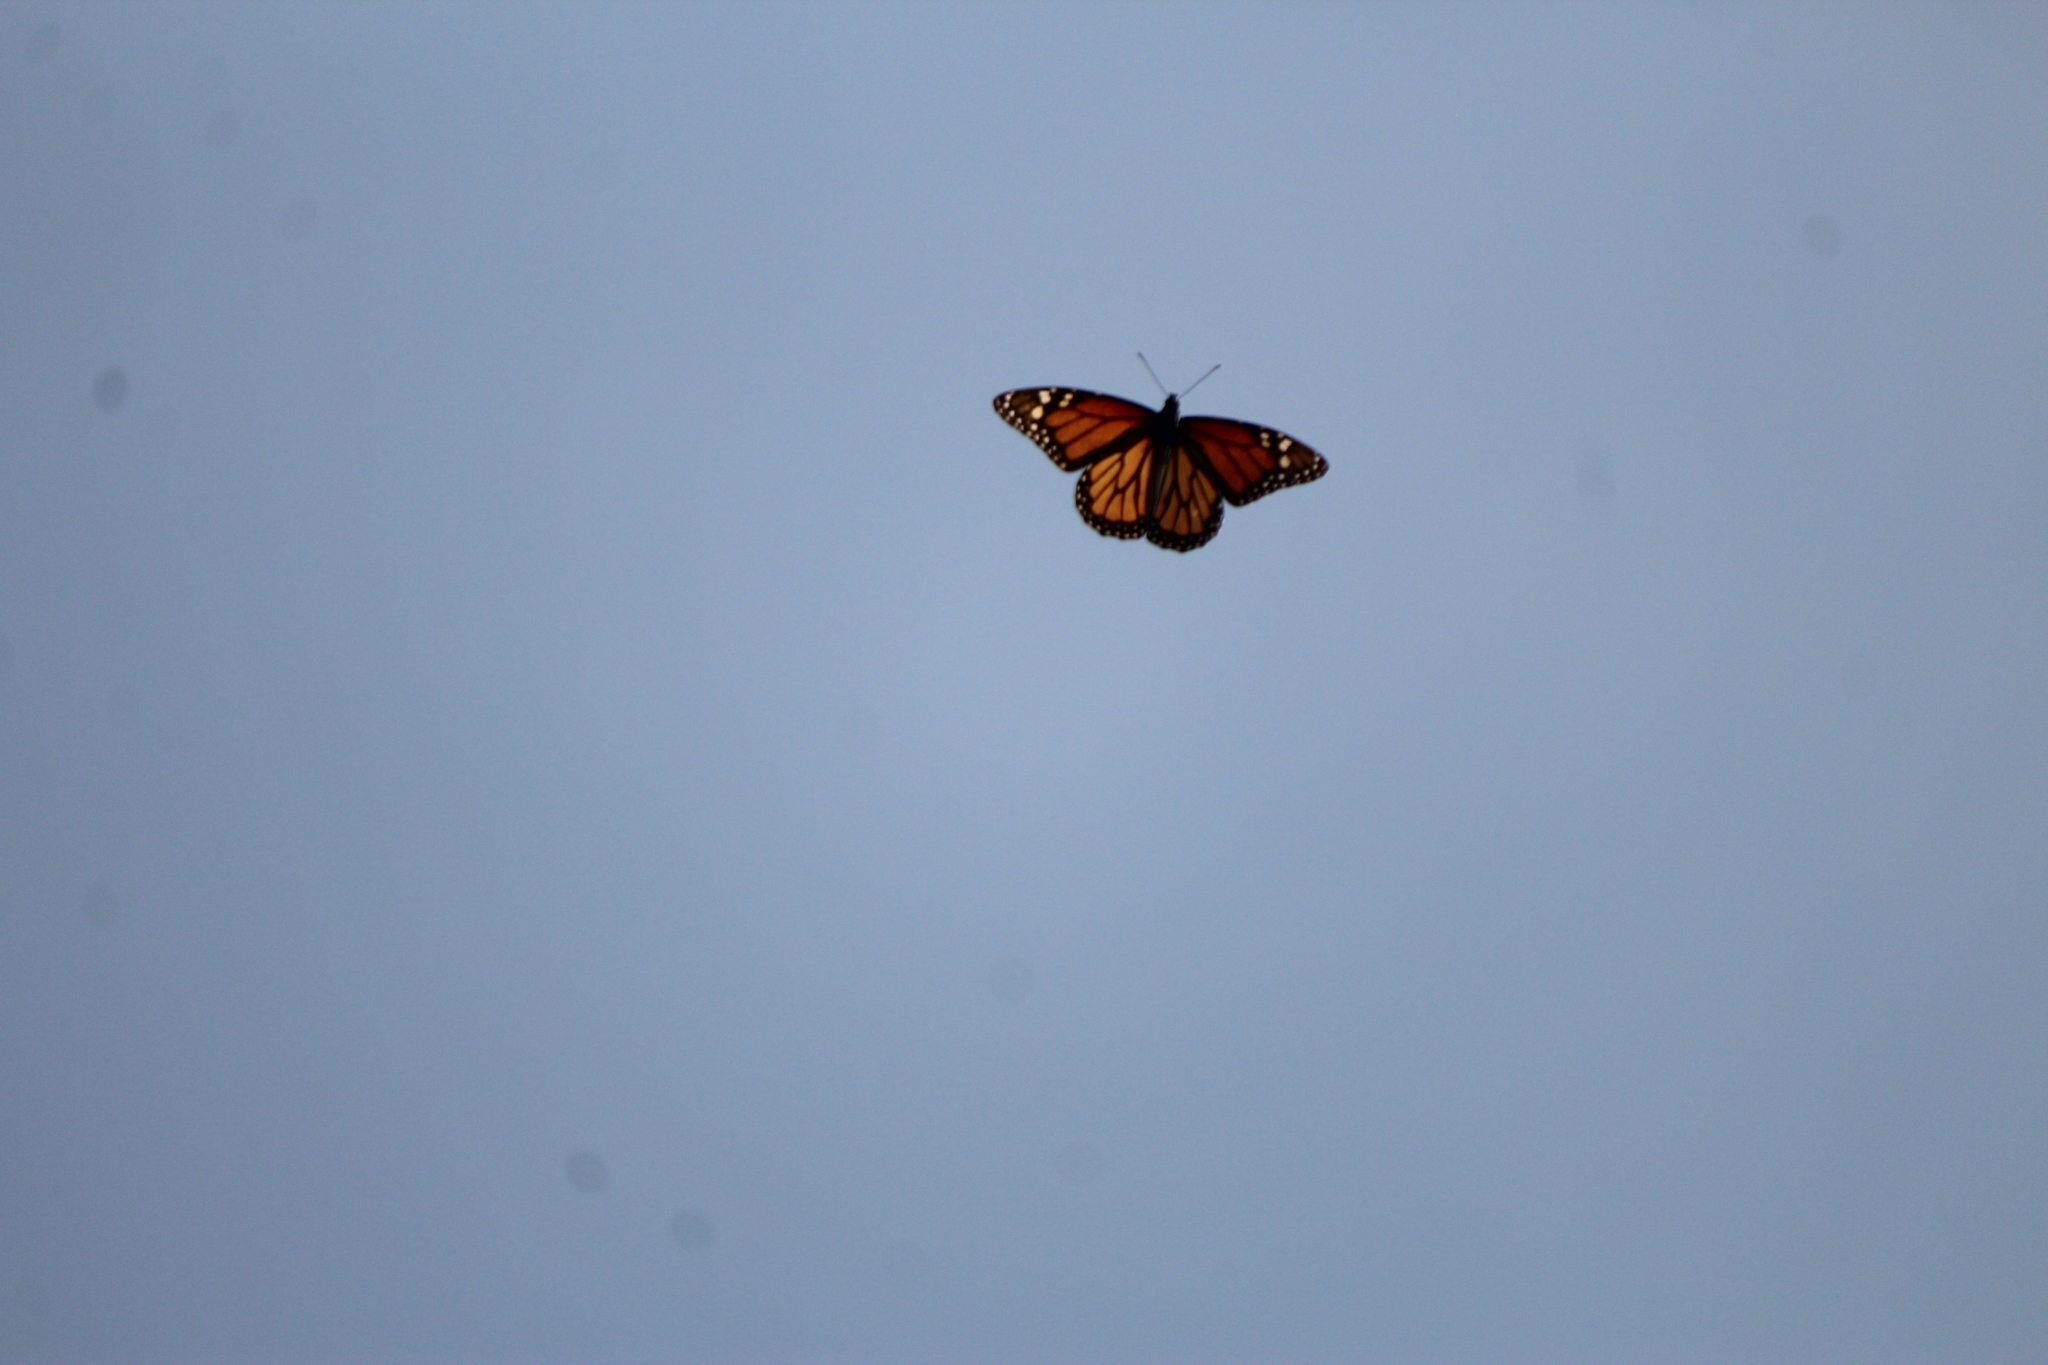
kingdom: Animalia
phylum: Arthropoda
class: Insecta
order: Lepidoptera
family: Nymphalidae
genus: Danaus
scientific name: Danaus plexippus
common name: Monarch
